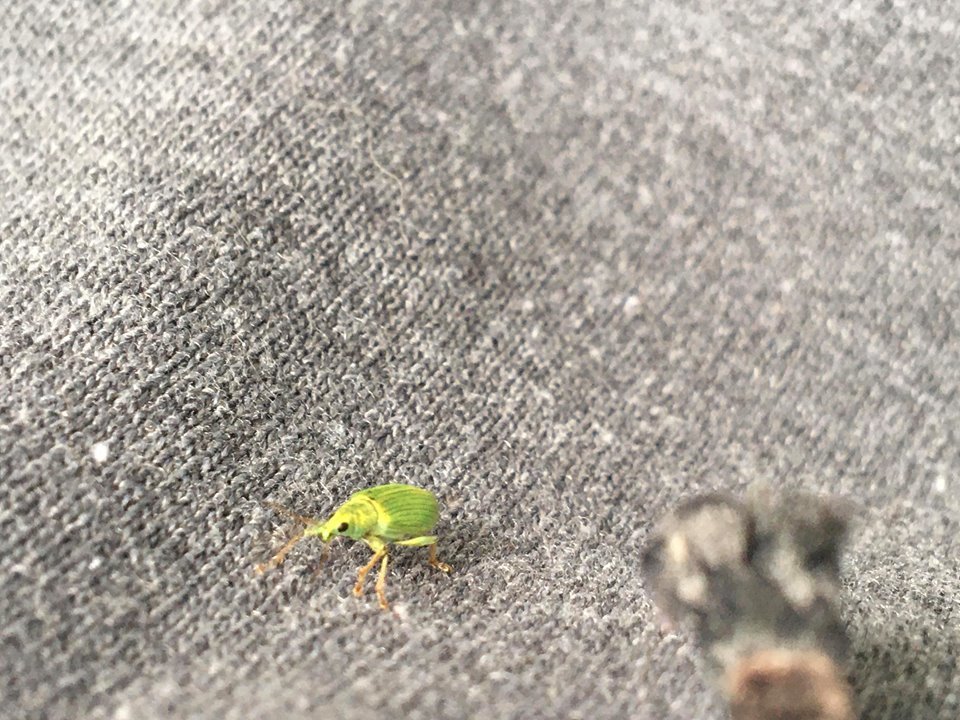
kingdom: Animalia
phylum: Arthropoda
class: Insecta
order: Coleoptera
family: Curculionidae
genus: Polydrusus
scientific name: Polydrusus formosus
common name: Weevil
